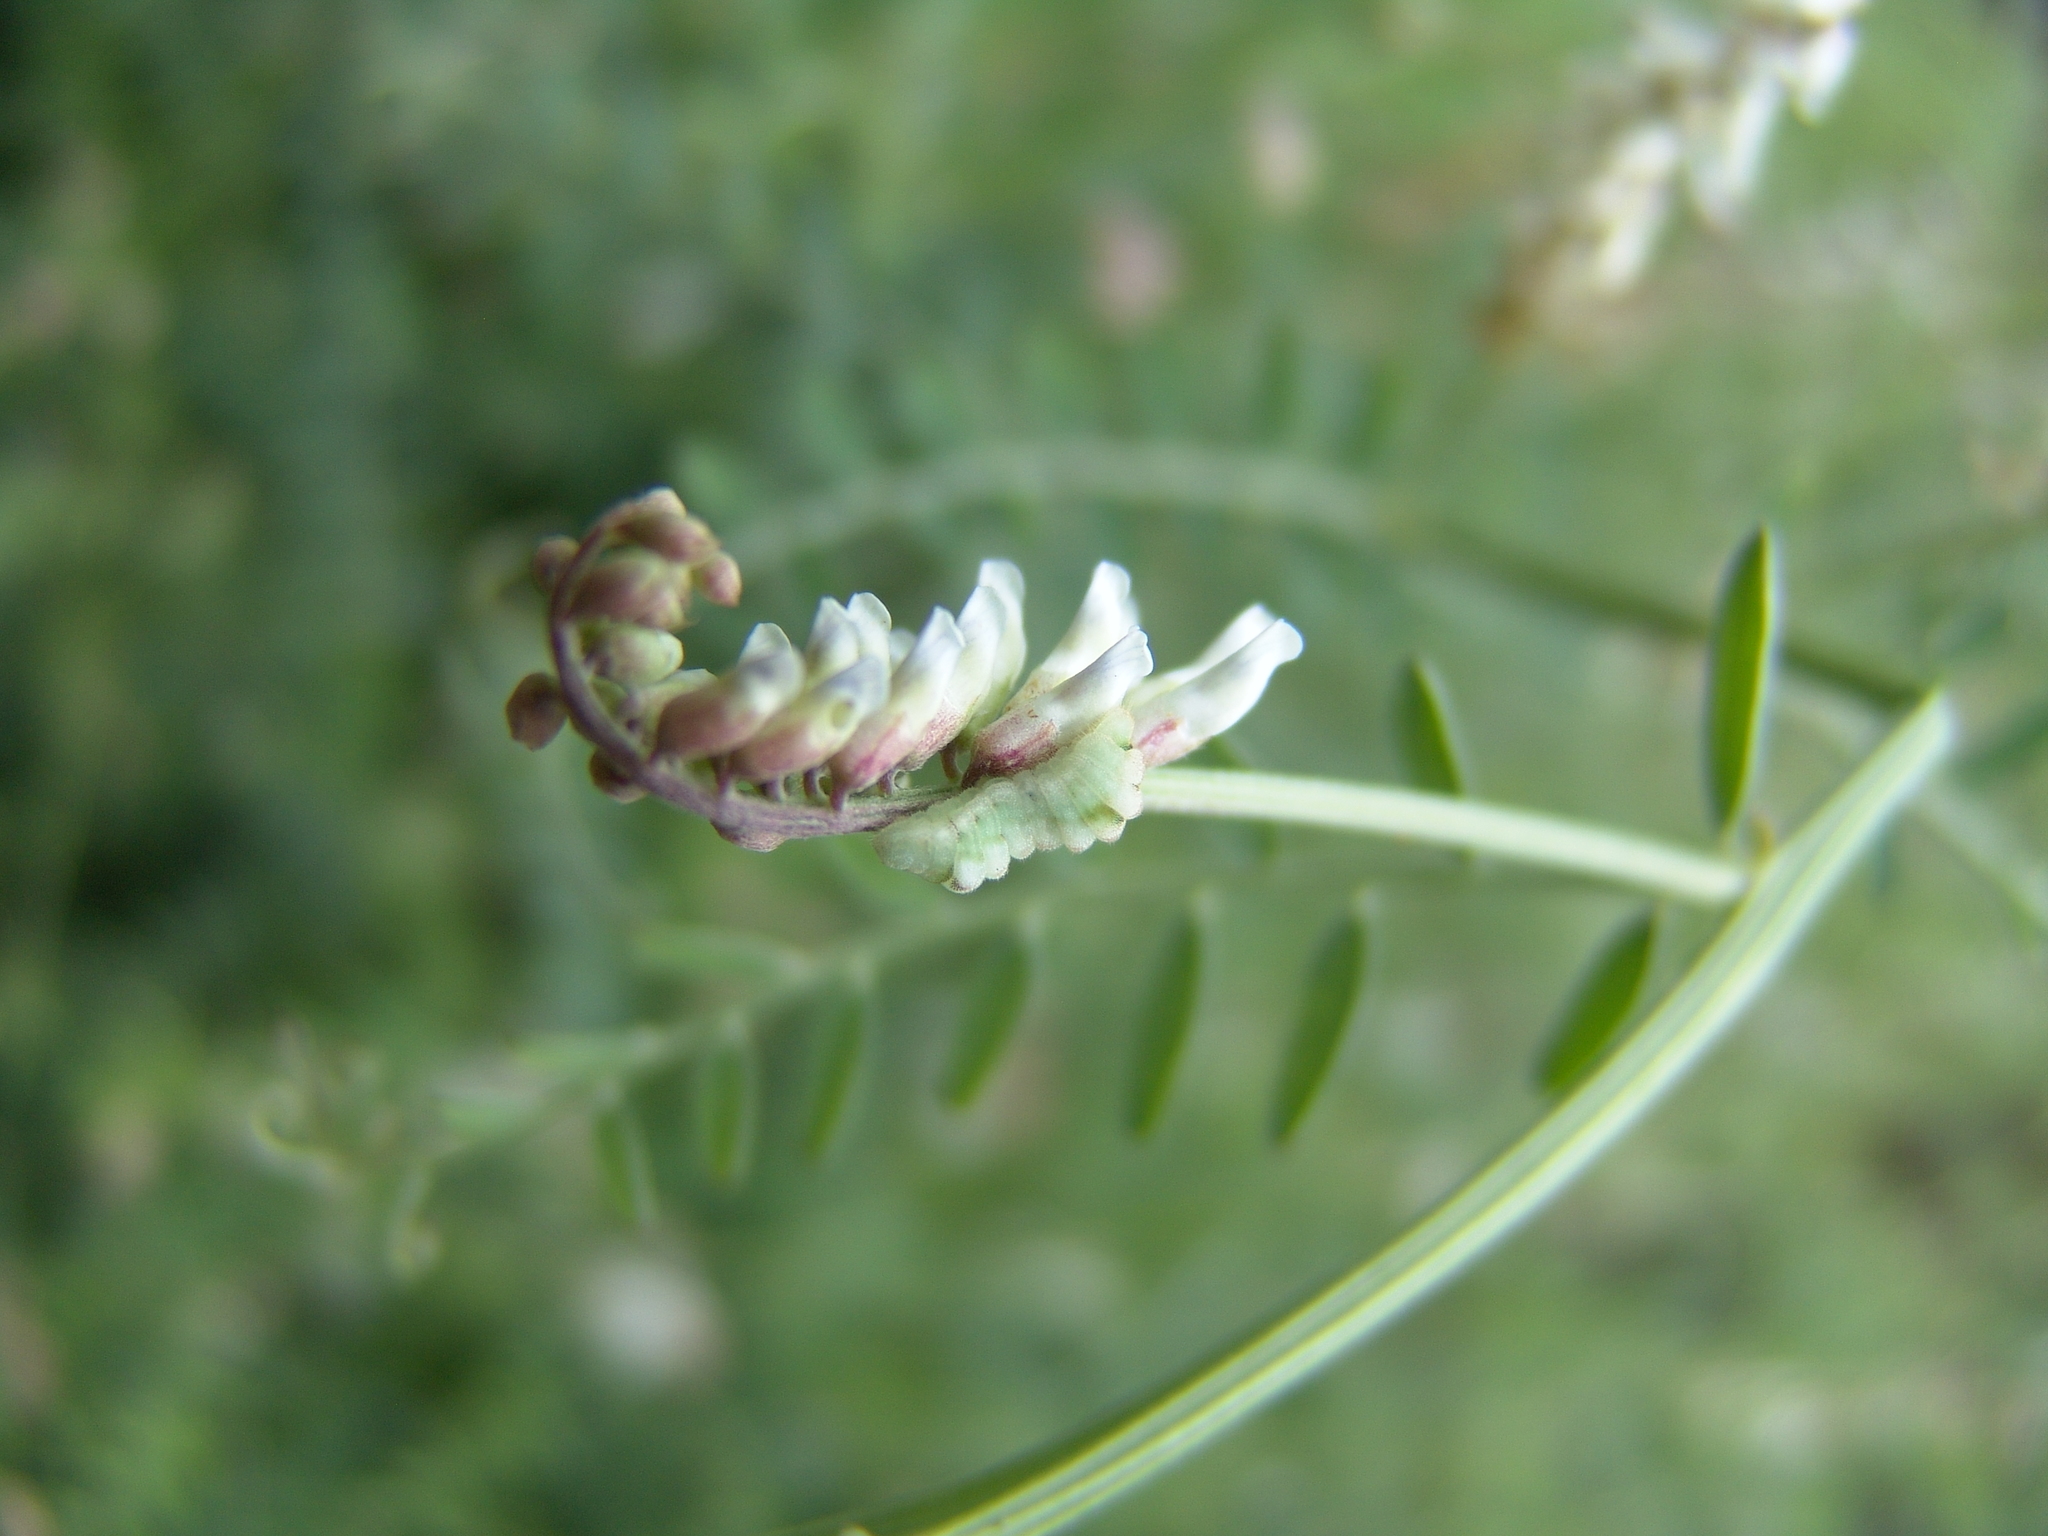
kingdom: Plantae
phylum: Tracheophyta
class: Magnoliopsida
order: Fabales
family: Fabaceae
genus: Vicia
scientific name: Vicia pulchella
